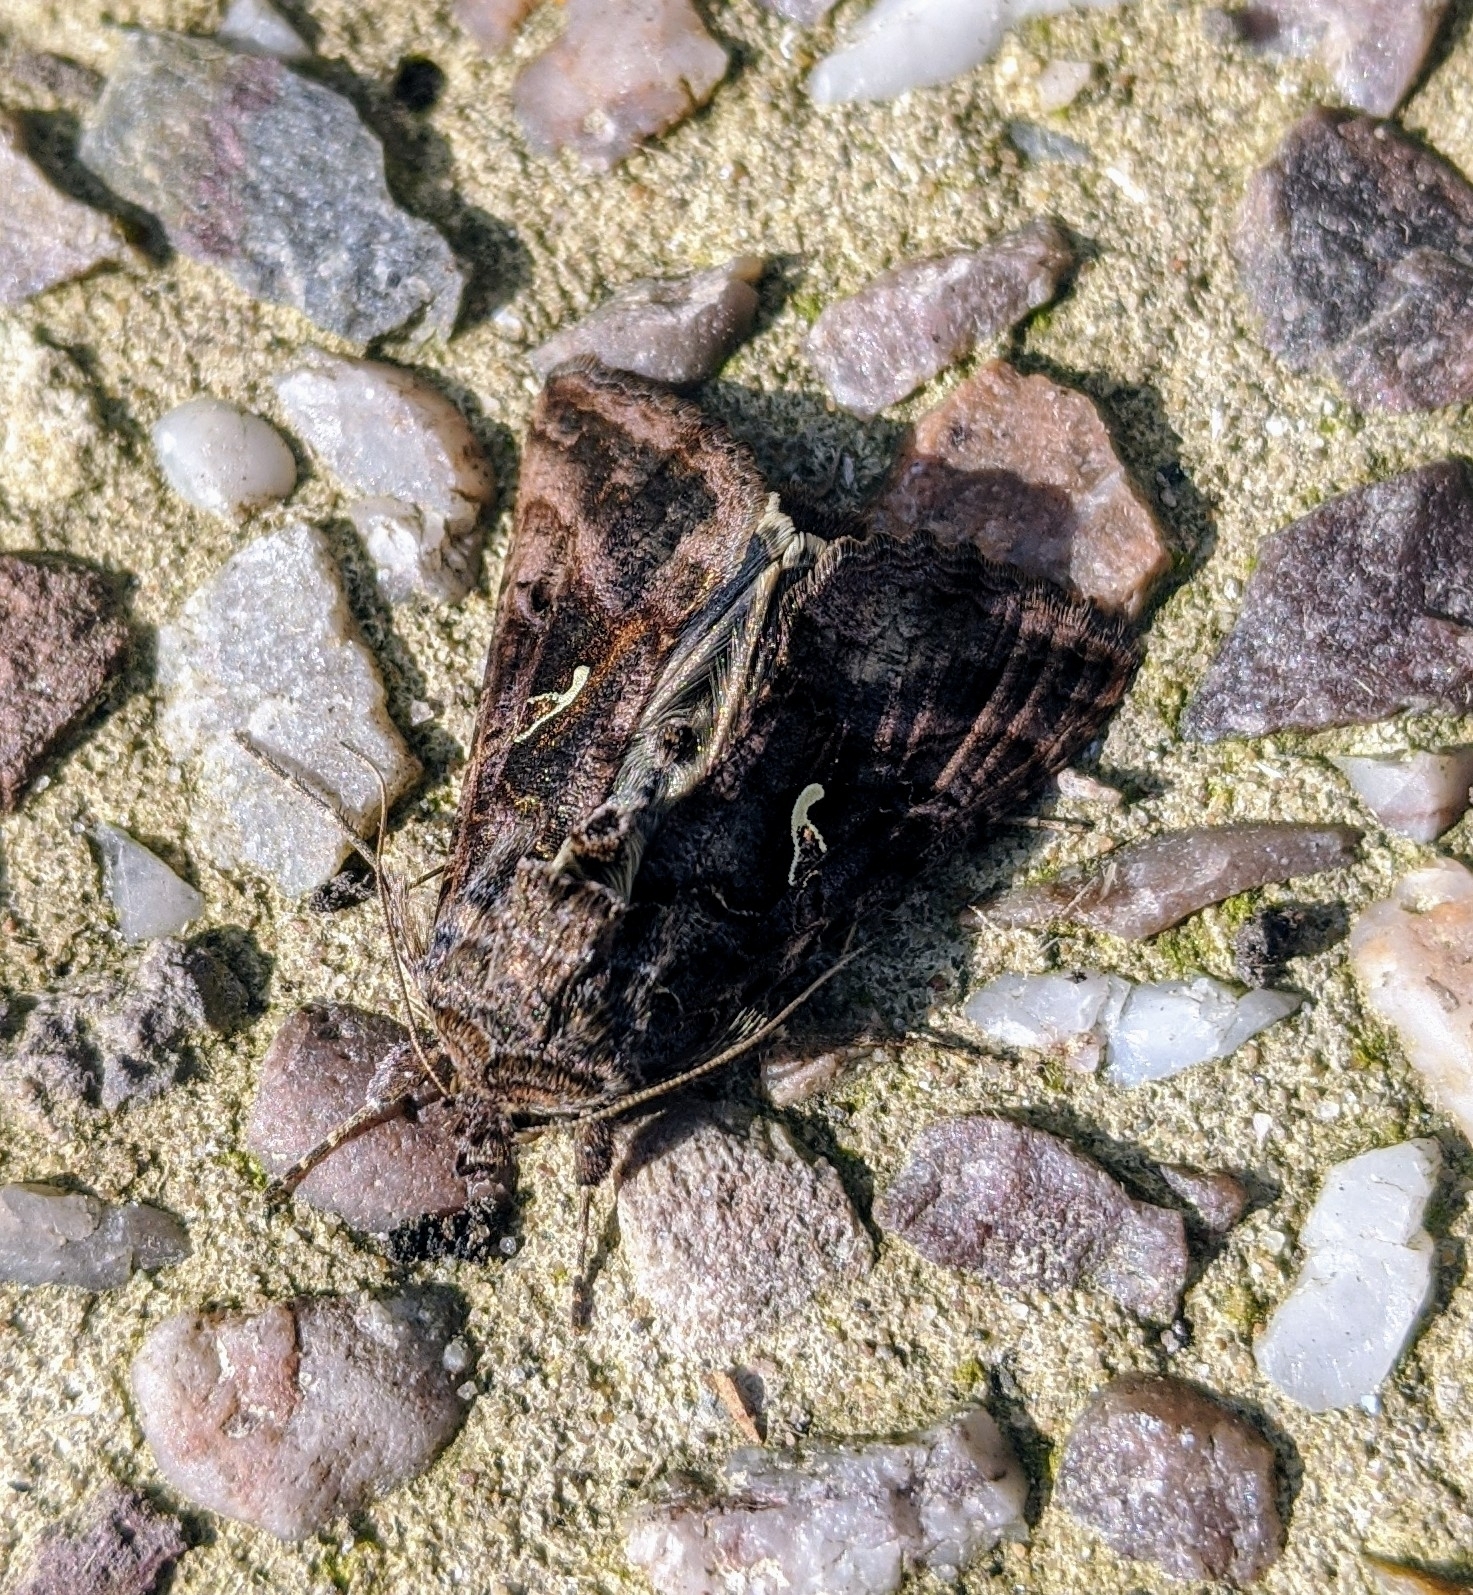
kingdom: Animalia
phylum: Arthropoda
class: Insecta
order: Lepidoptera
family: Noctuidae
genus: Autographa
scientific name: Autographa gamma
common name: Silver y
